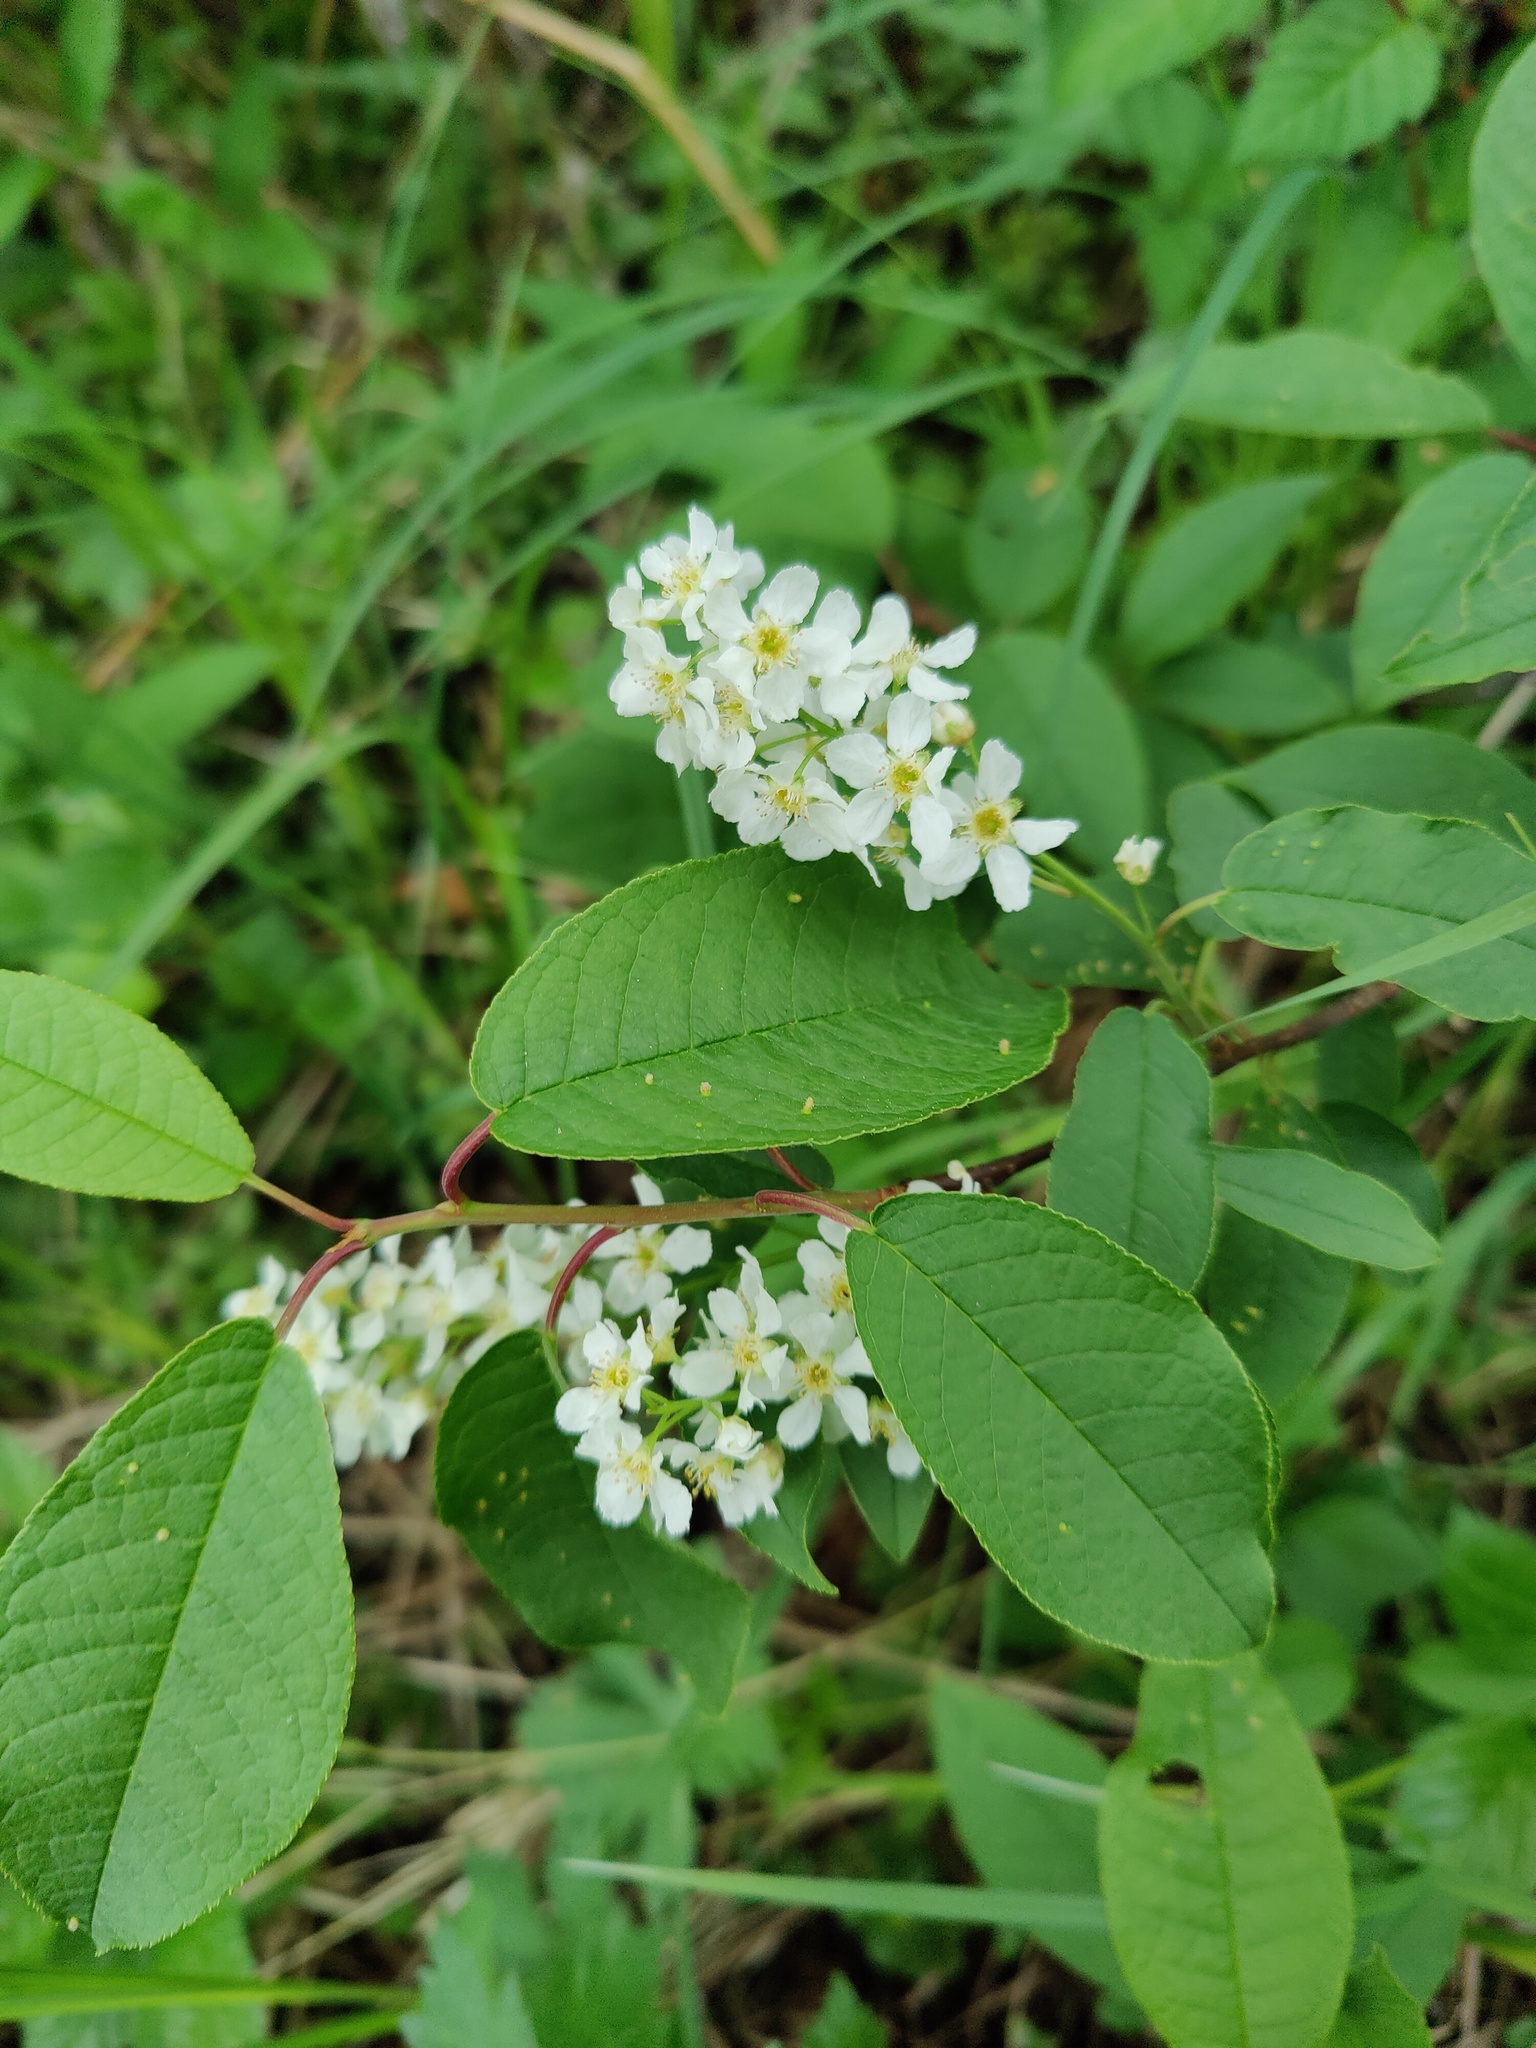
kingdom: Plantae
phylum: Tracheophyta
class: Magnoliopsida
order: Rosales
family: Rosaceae
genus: Prunus
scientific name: Prunus padus
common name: Bird cherry
